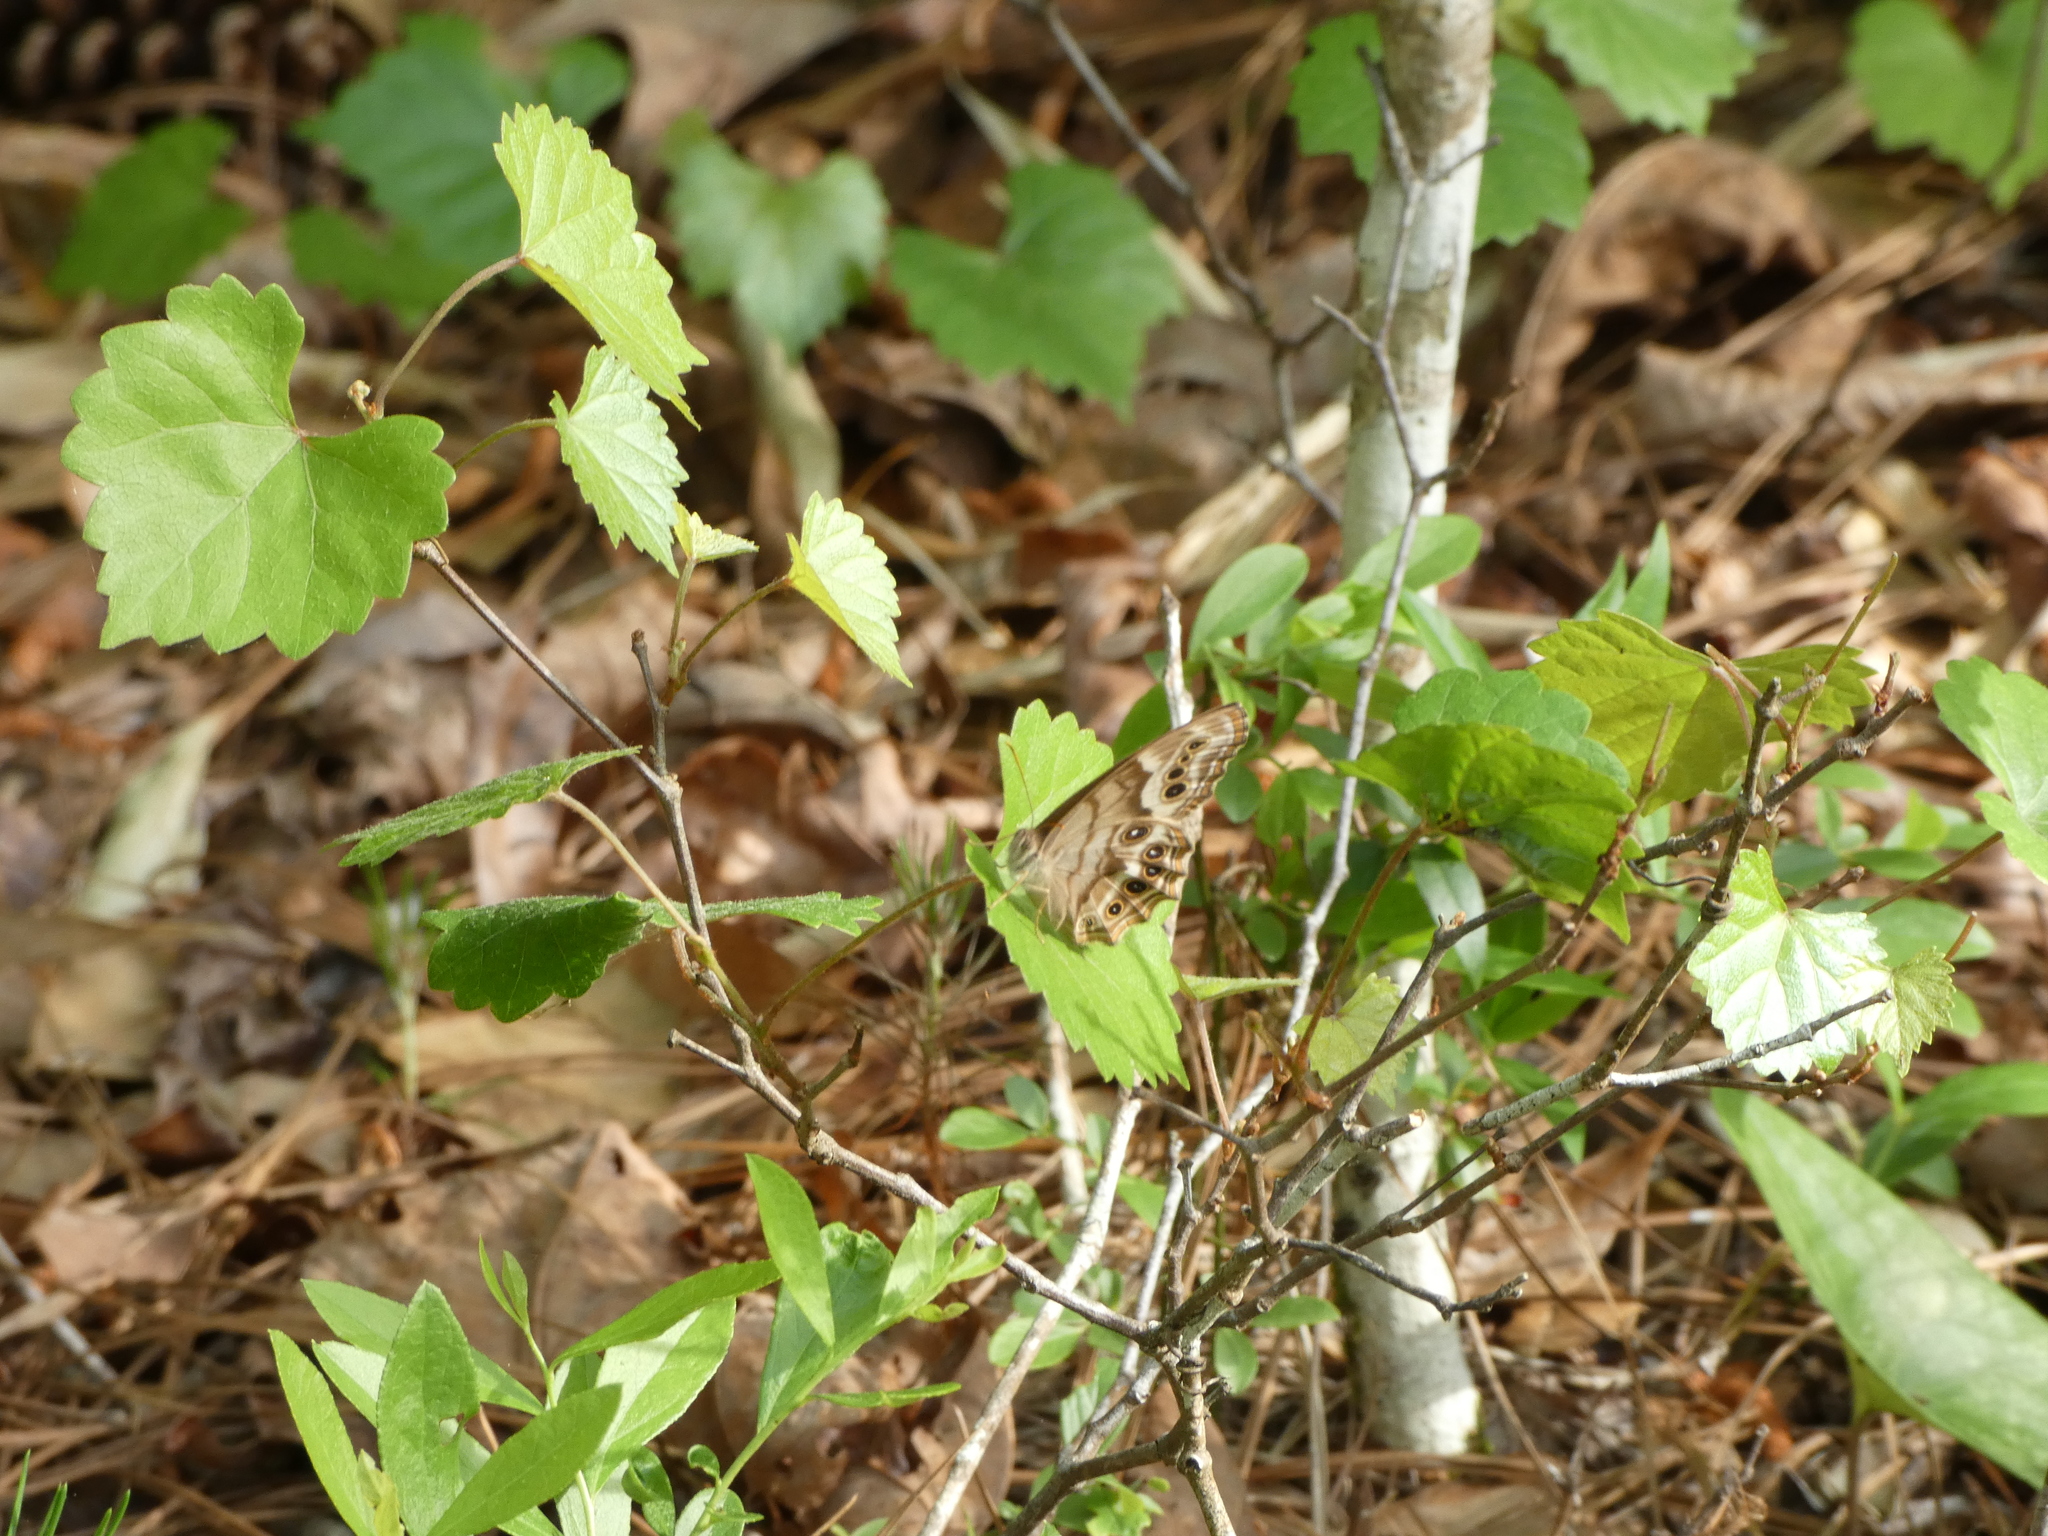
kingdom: Animalia
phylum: Arthropoda
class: Insecta
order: Lepidoptera
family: Nymphalidae
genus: Enodia
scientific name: Enodia portlandia
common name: Southern pearly-eye
